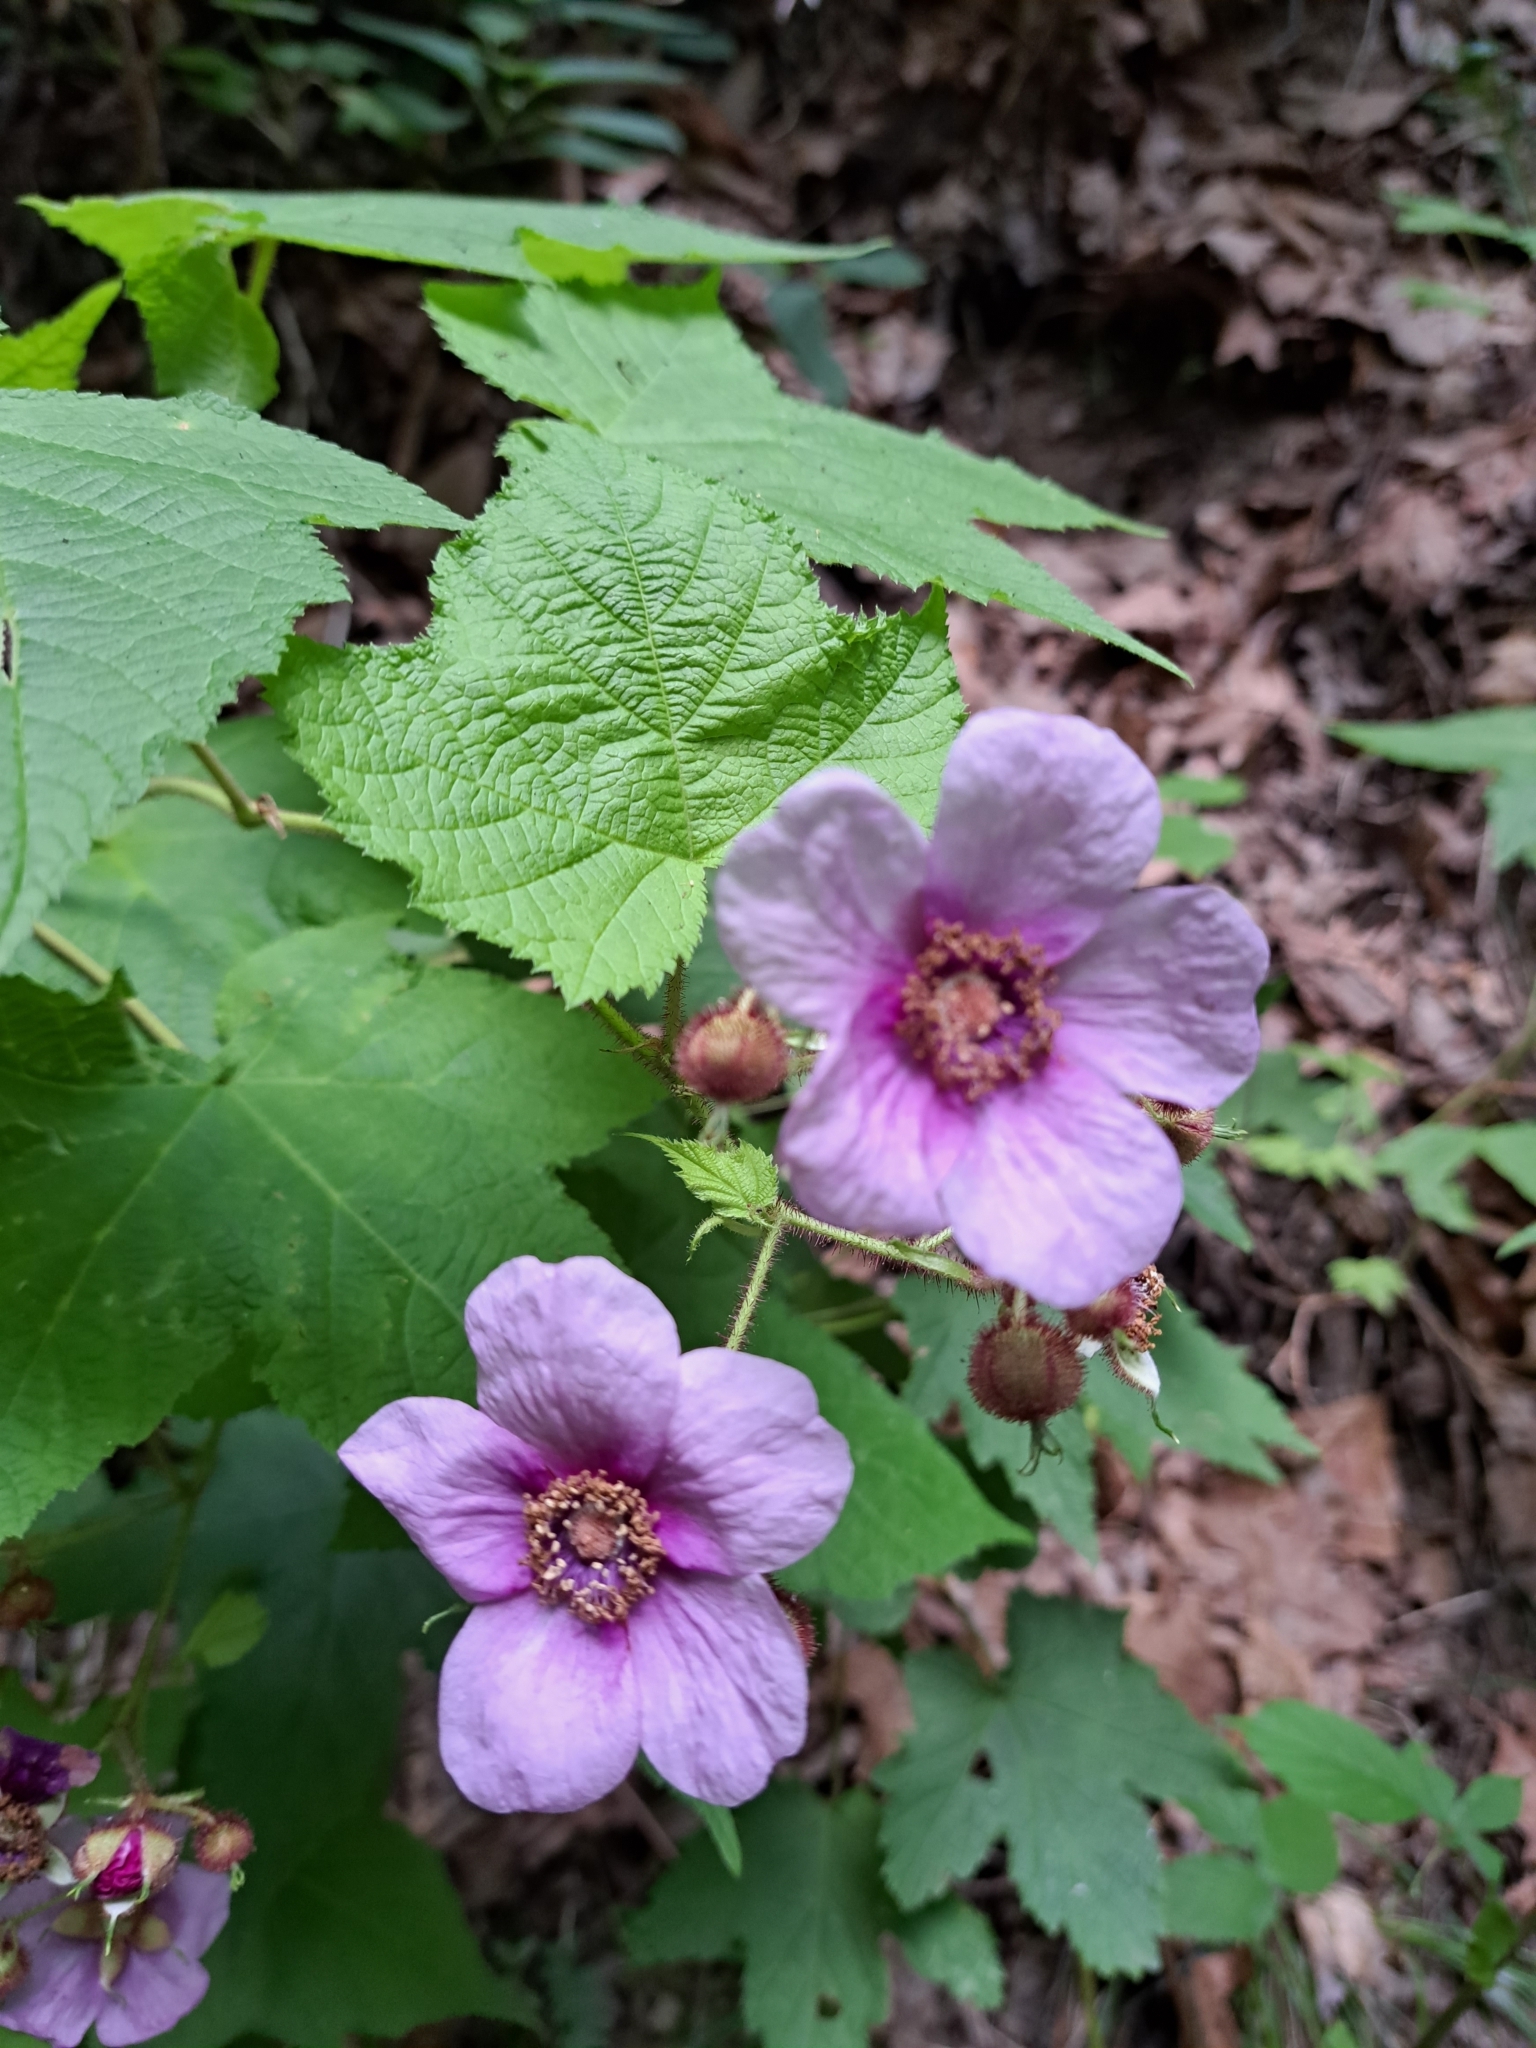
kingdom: Plantae
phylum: Tracheophyta
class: Magnoliopsida
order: Rosales
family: Rosaceae
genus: Rubus
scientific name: Rubus odoratus
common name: Purple-flowered raspberry
